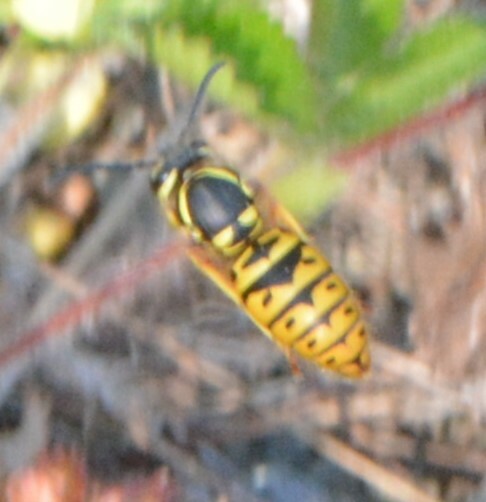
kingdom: Animalia
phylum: Arthropoda
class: Insecta
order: Hymenoptera
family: Vespidae
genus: Vespula
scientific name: Vespula maculifrons
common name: Eastern yellowjacket
